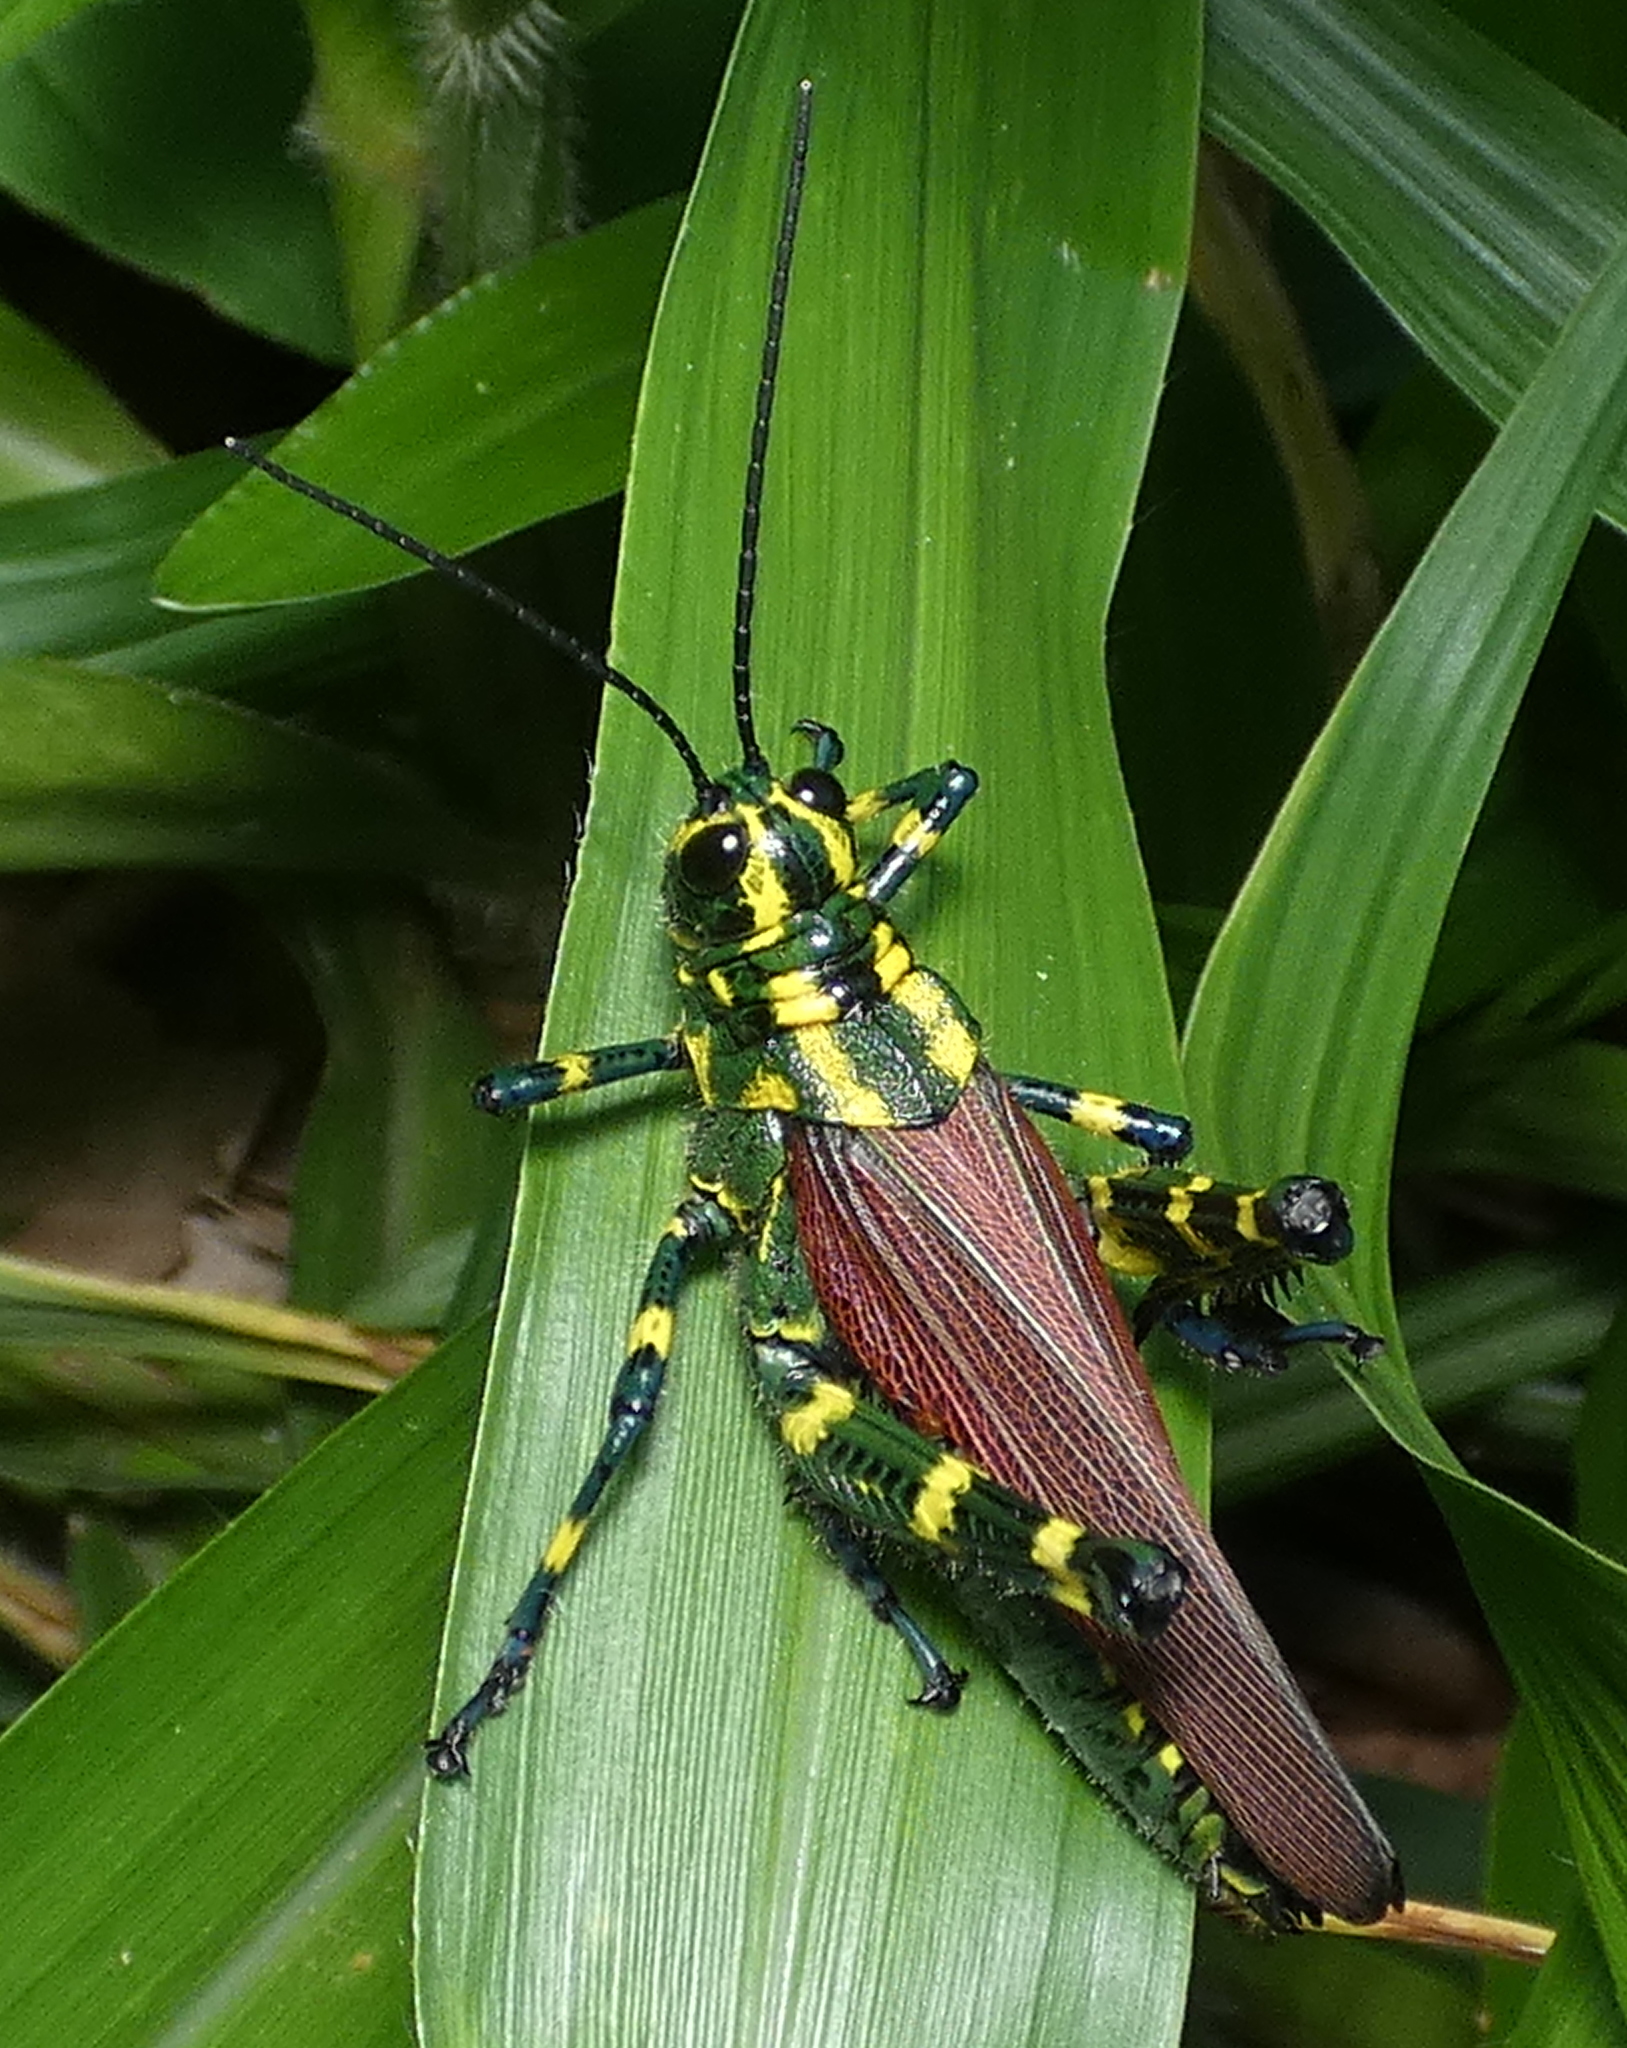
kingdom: Animalia
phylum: Arthropoda
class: Insecta
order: Orthoptera
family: Romaleidae
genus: Chromacris
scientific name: Chromacris speciosa
